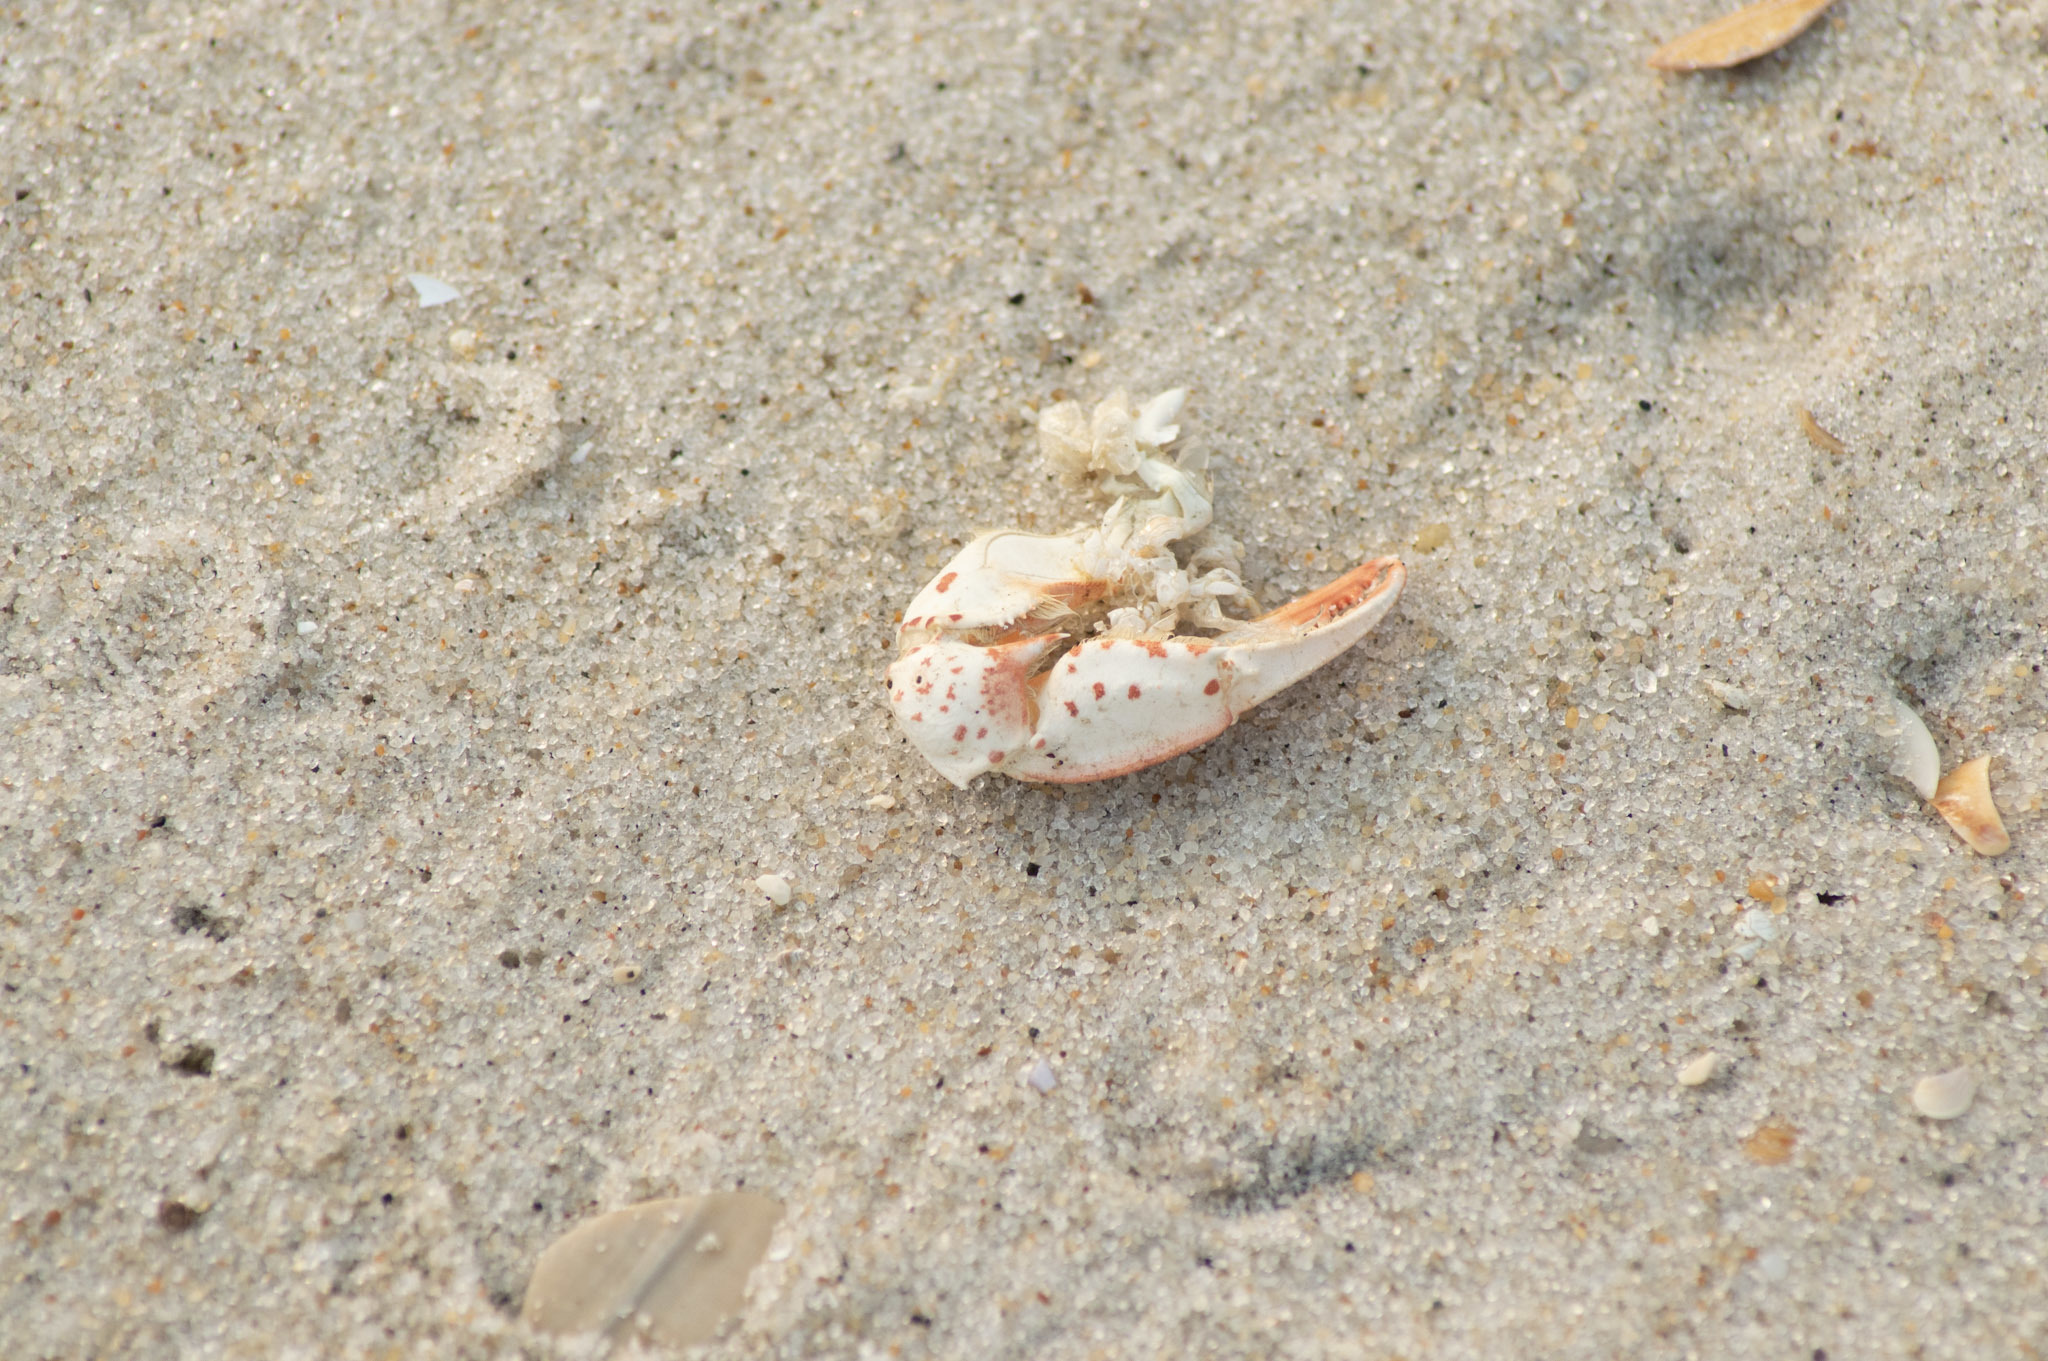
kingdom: Animalia
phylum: Arthropoda
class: Malacostraca
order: Decapoda
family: Ovalipidae
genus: Ovalipes
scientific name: Ovalipes ocellatus
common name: Lady crab
